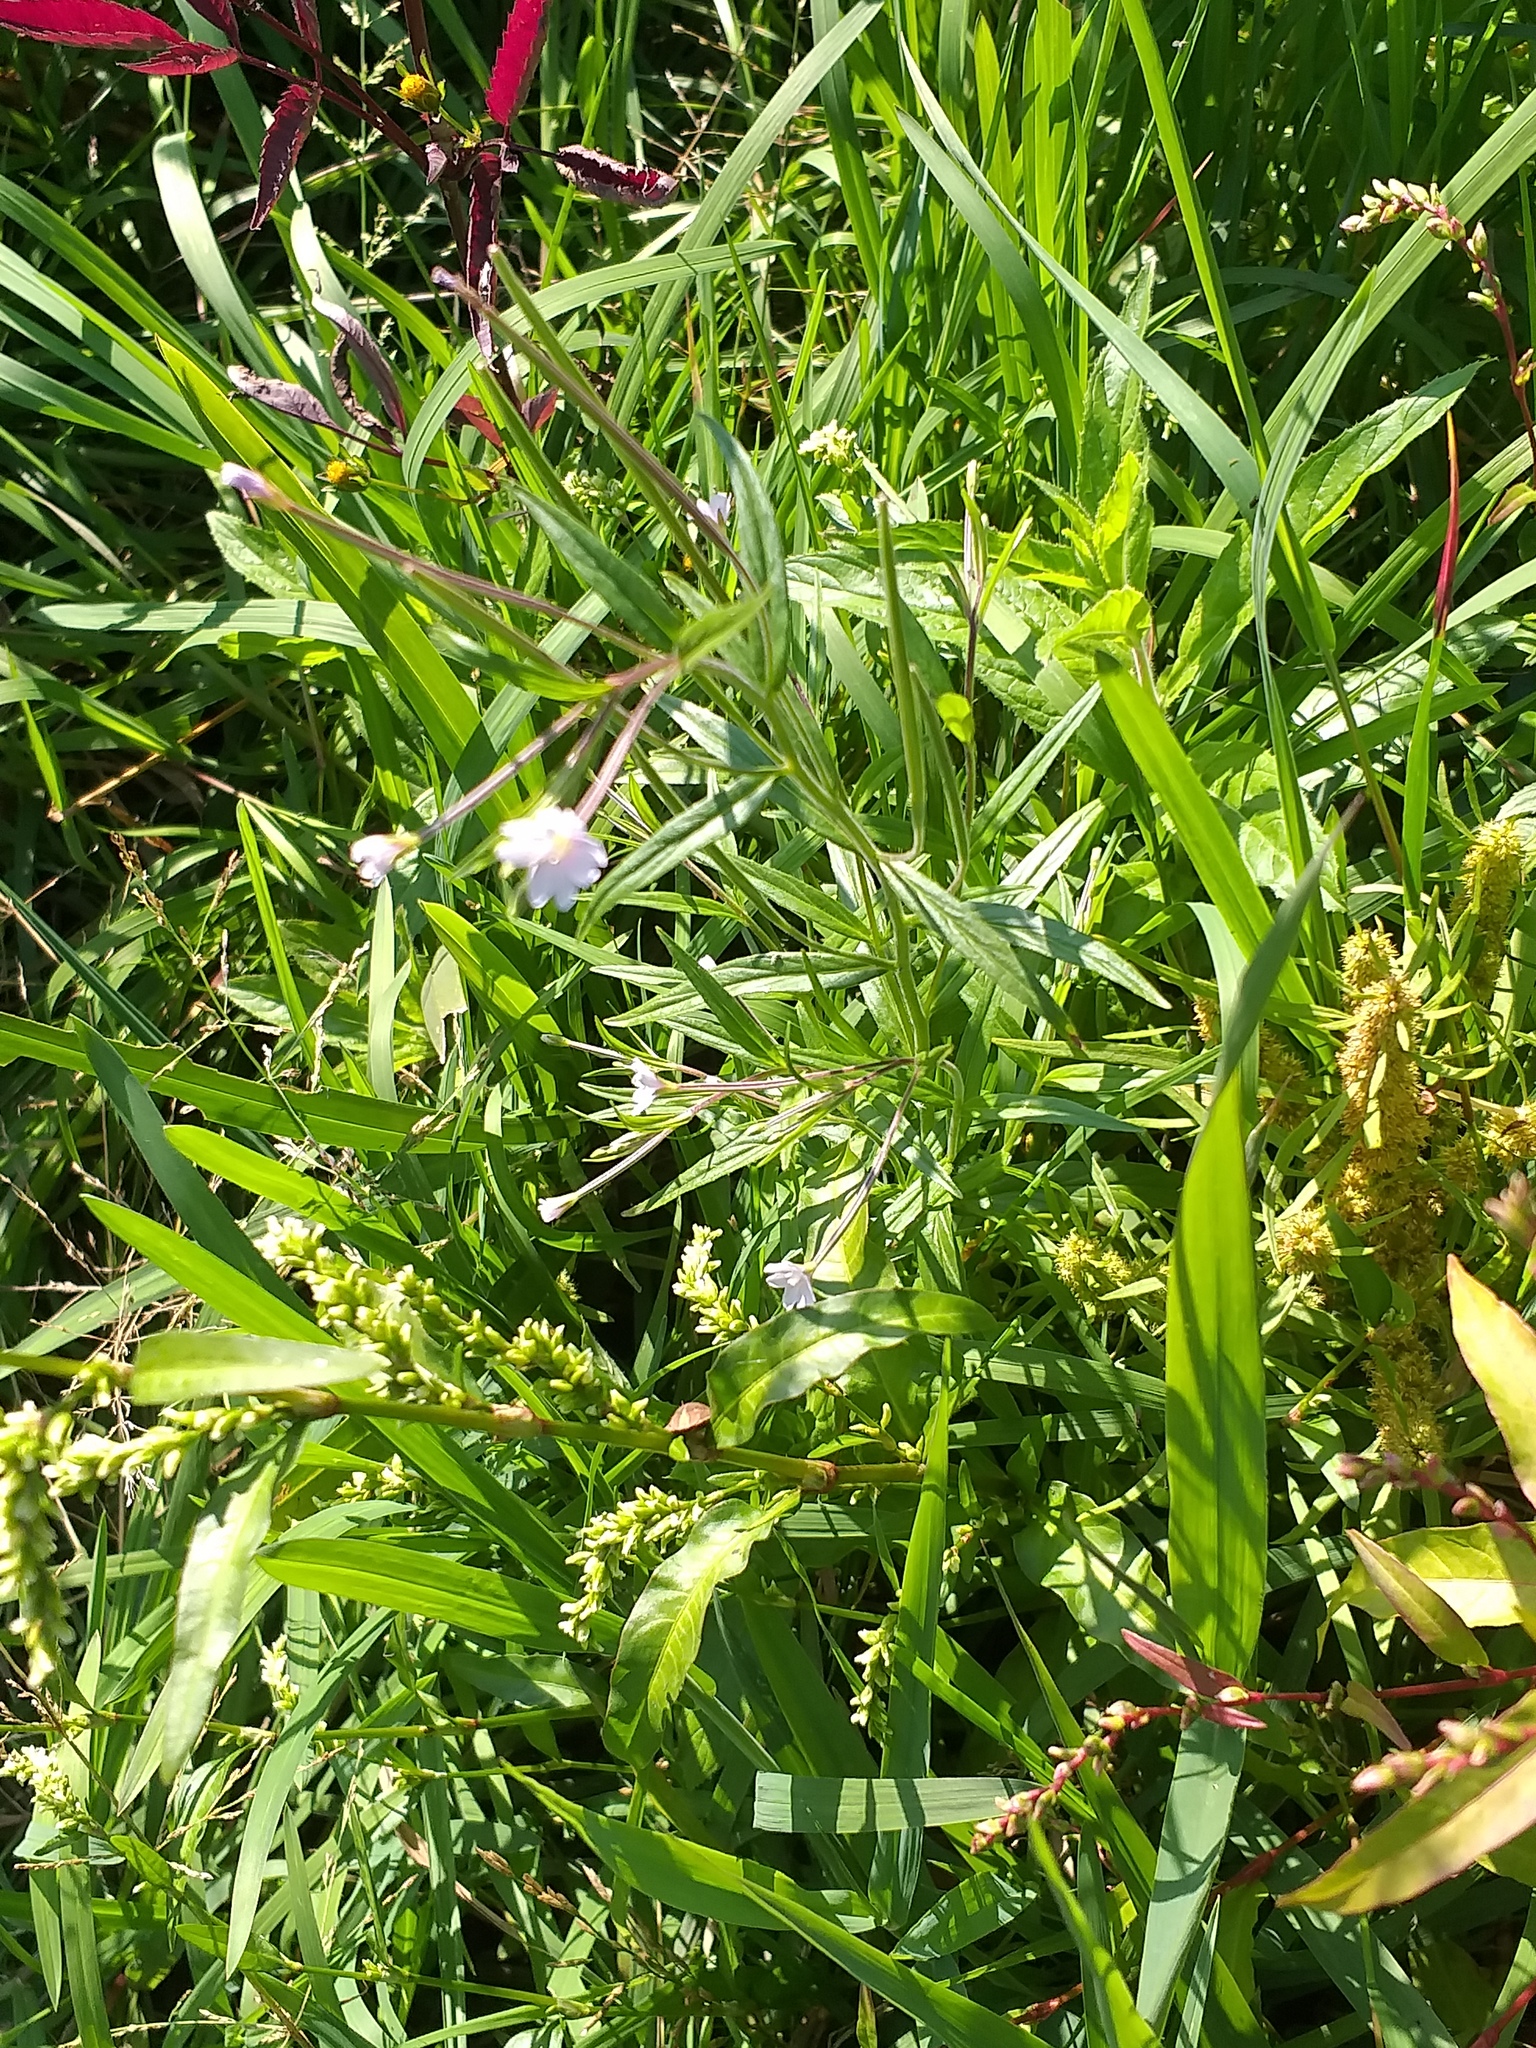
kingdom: Plantae
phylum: Tracheophyta
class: Magnoliopsida
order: Myrtales
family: Onagraceae
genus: Epilobium
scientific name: Epilobium palustre
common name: Marsh willowherb
